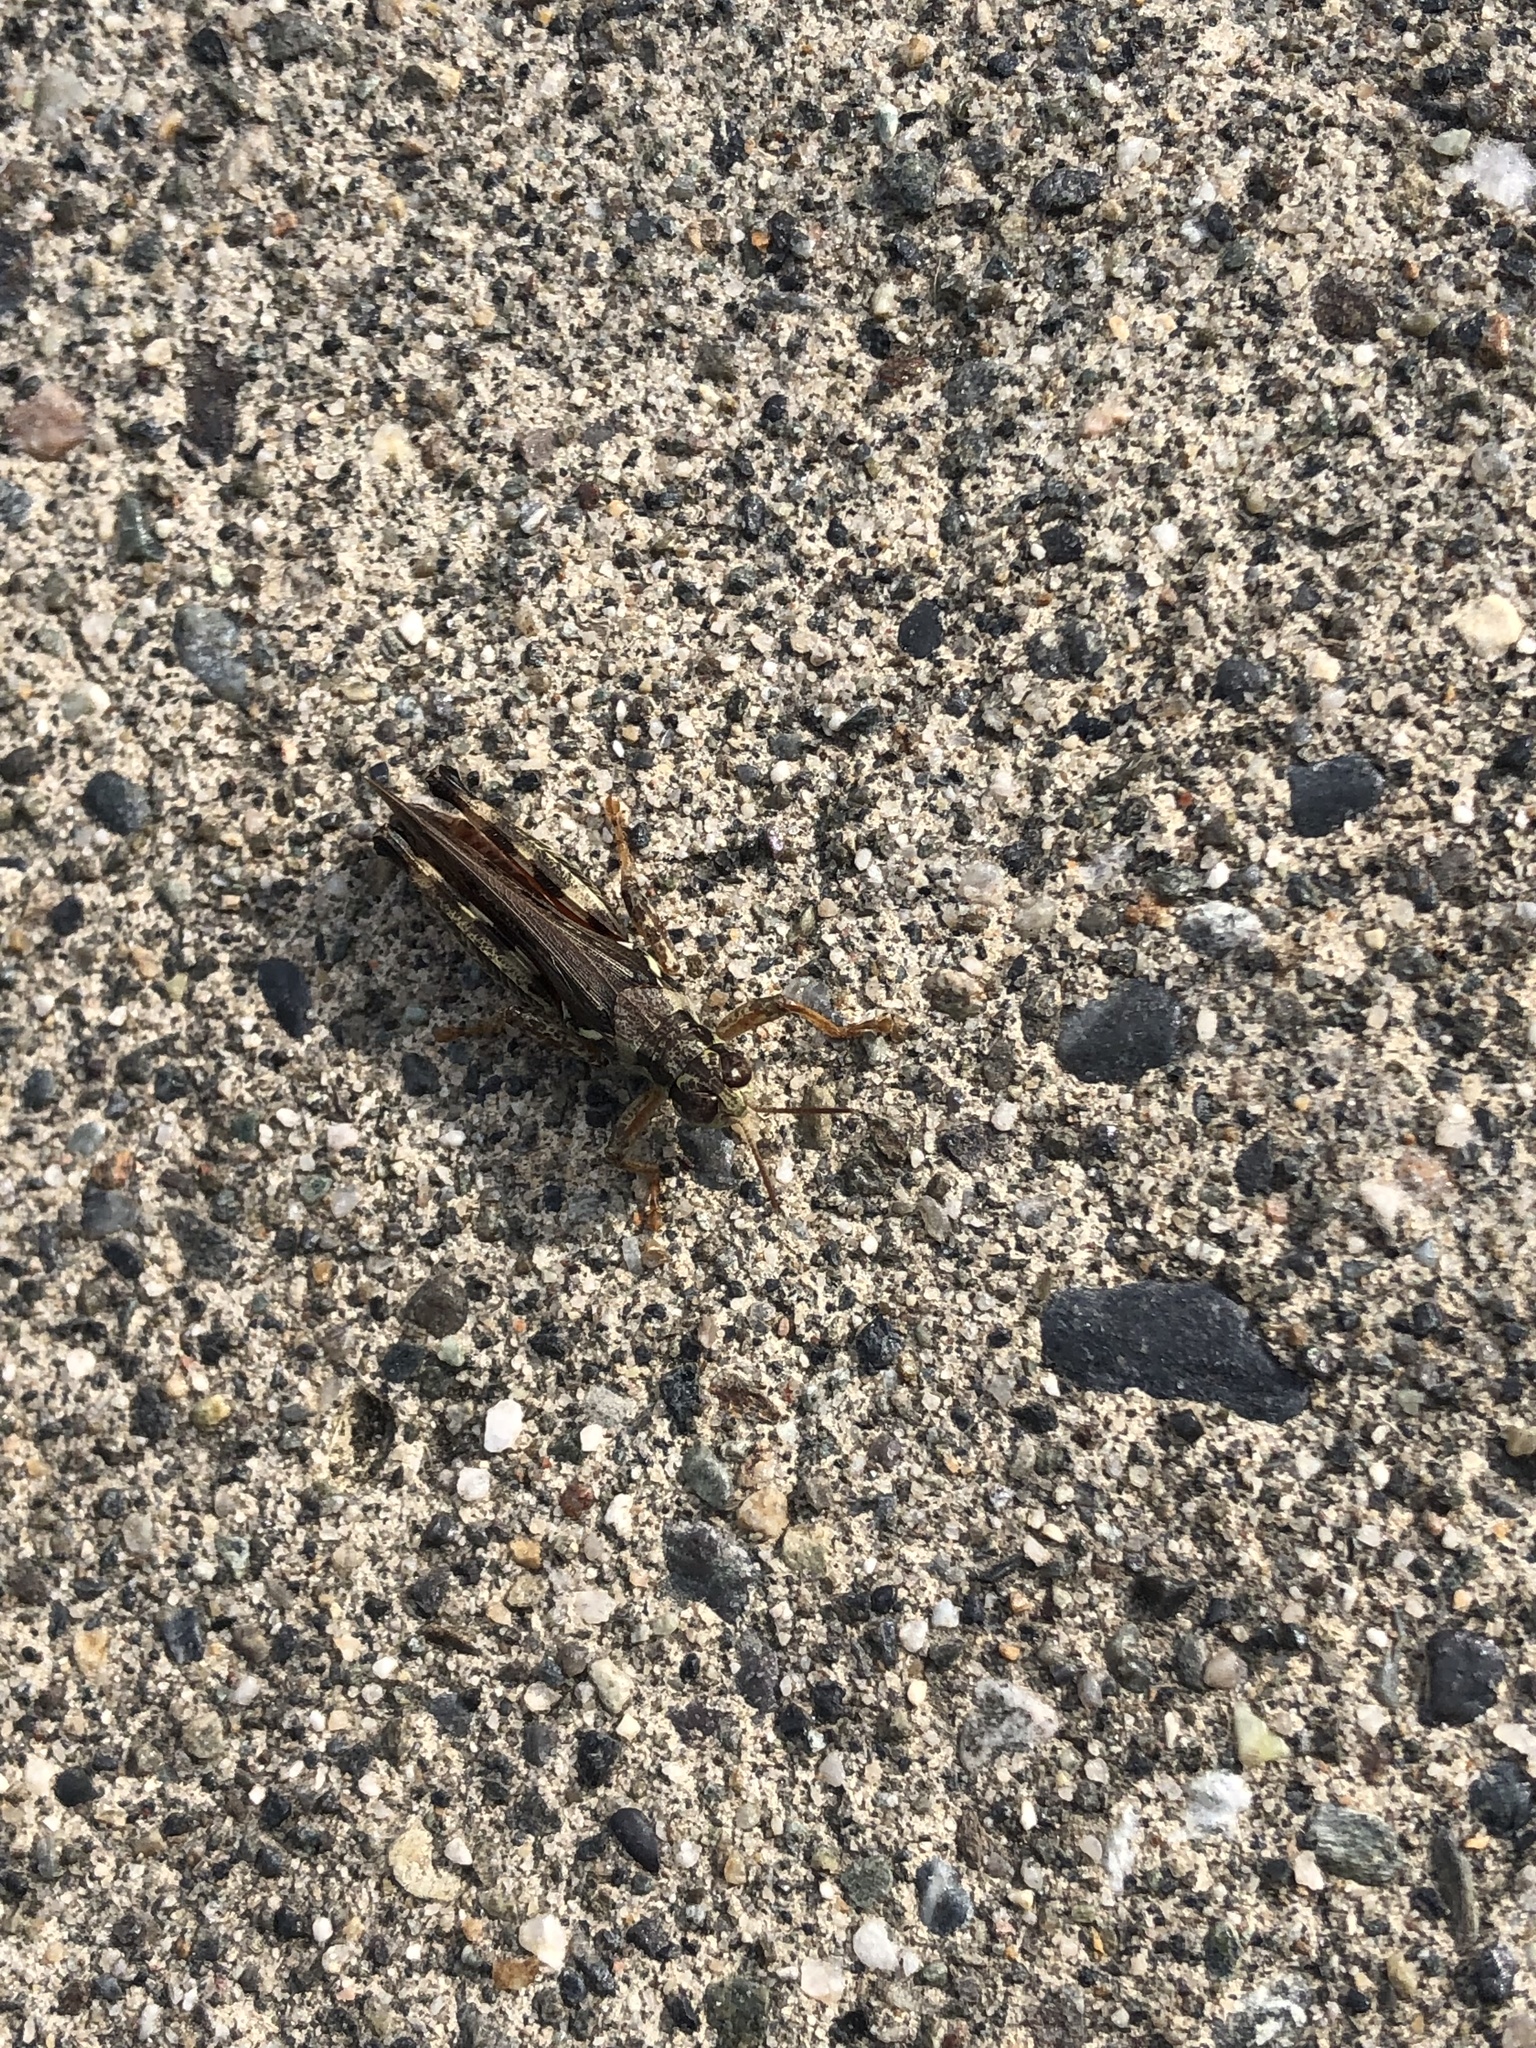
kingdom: Animalia
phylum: Arthropoda
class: Insecta
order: Orthoptera
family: Acrididae
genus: Melanoplus
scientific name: Melanoplus sanguinipes
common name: Migratory grasshopper
